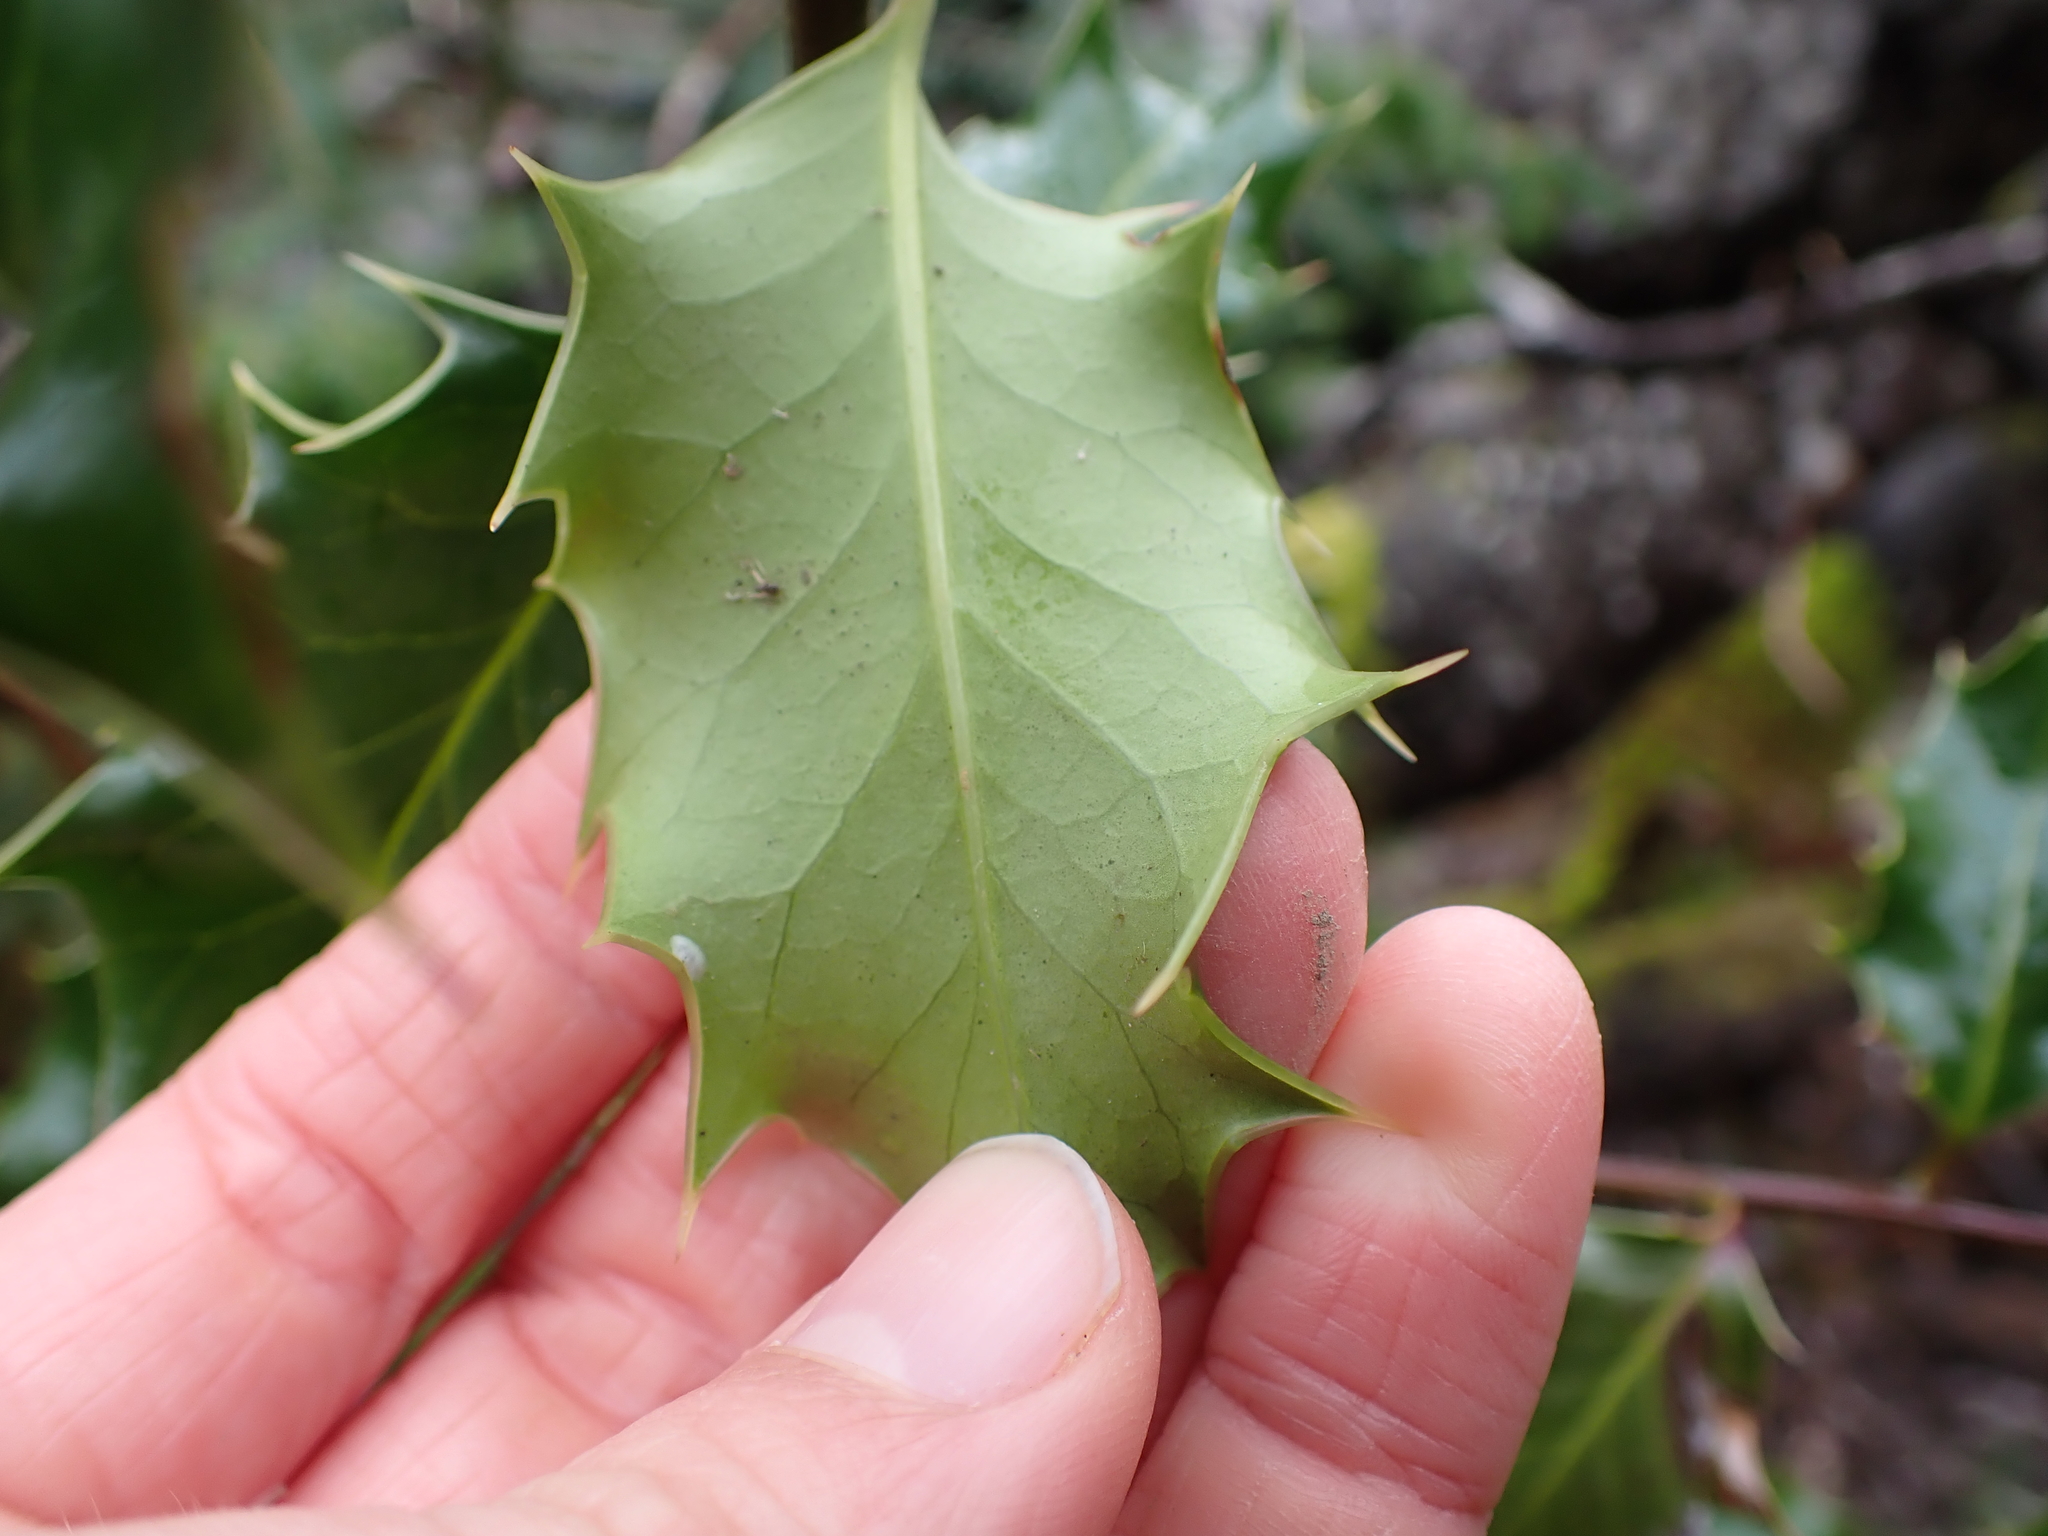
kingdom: Plantae
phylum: Tracheophyta
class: Magnoliopsida
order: Aquifoliales
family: Aquifoliaceae
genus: Ilex
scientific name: Ilex aquifolium
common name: English holly
